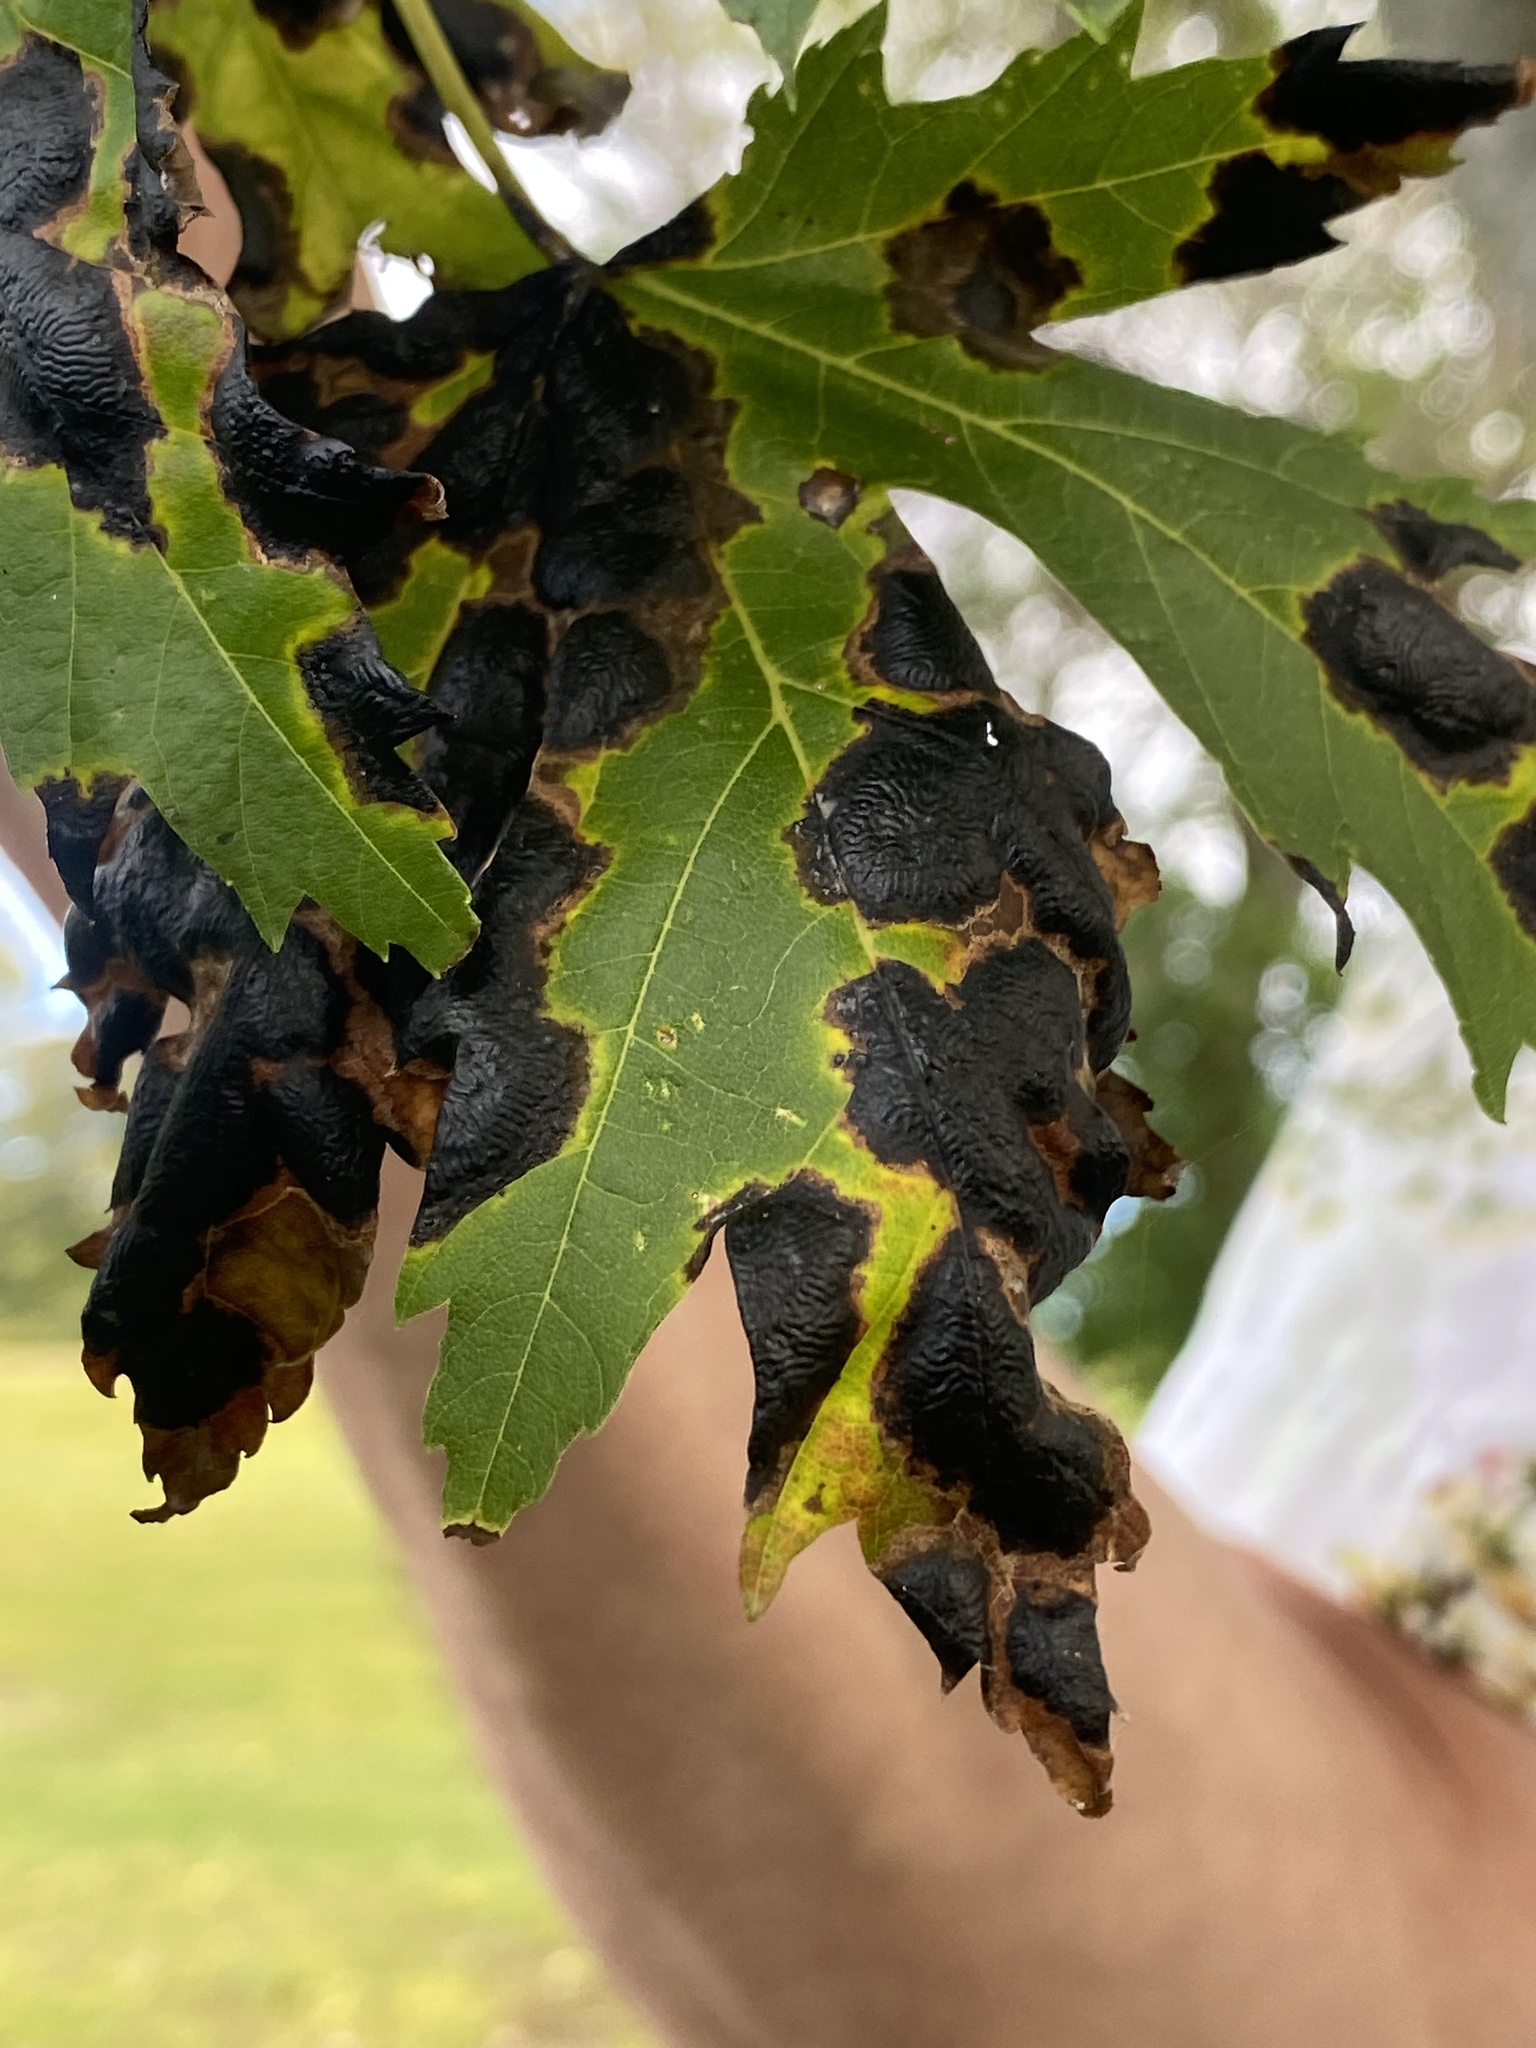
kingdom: Fungi
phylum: Ascomycota
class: Leotiomycetes
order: Rhytismatales
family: Rhytismataceae
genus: Rhytisma
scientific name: Rhytisma americanum
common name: American tar spot
